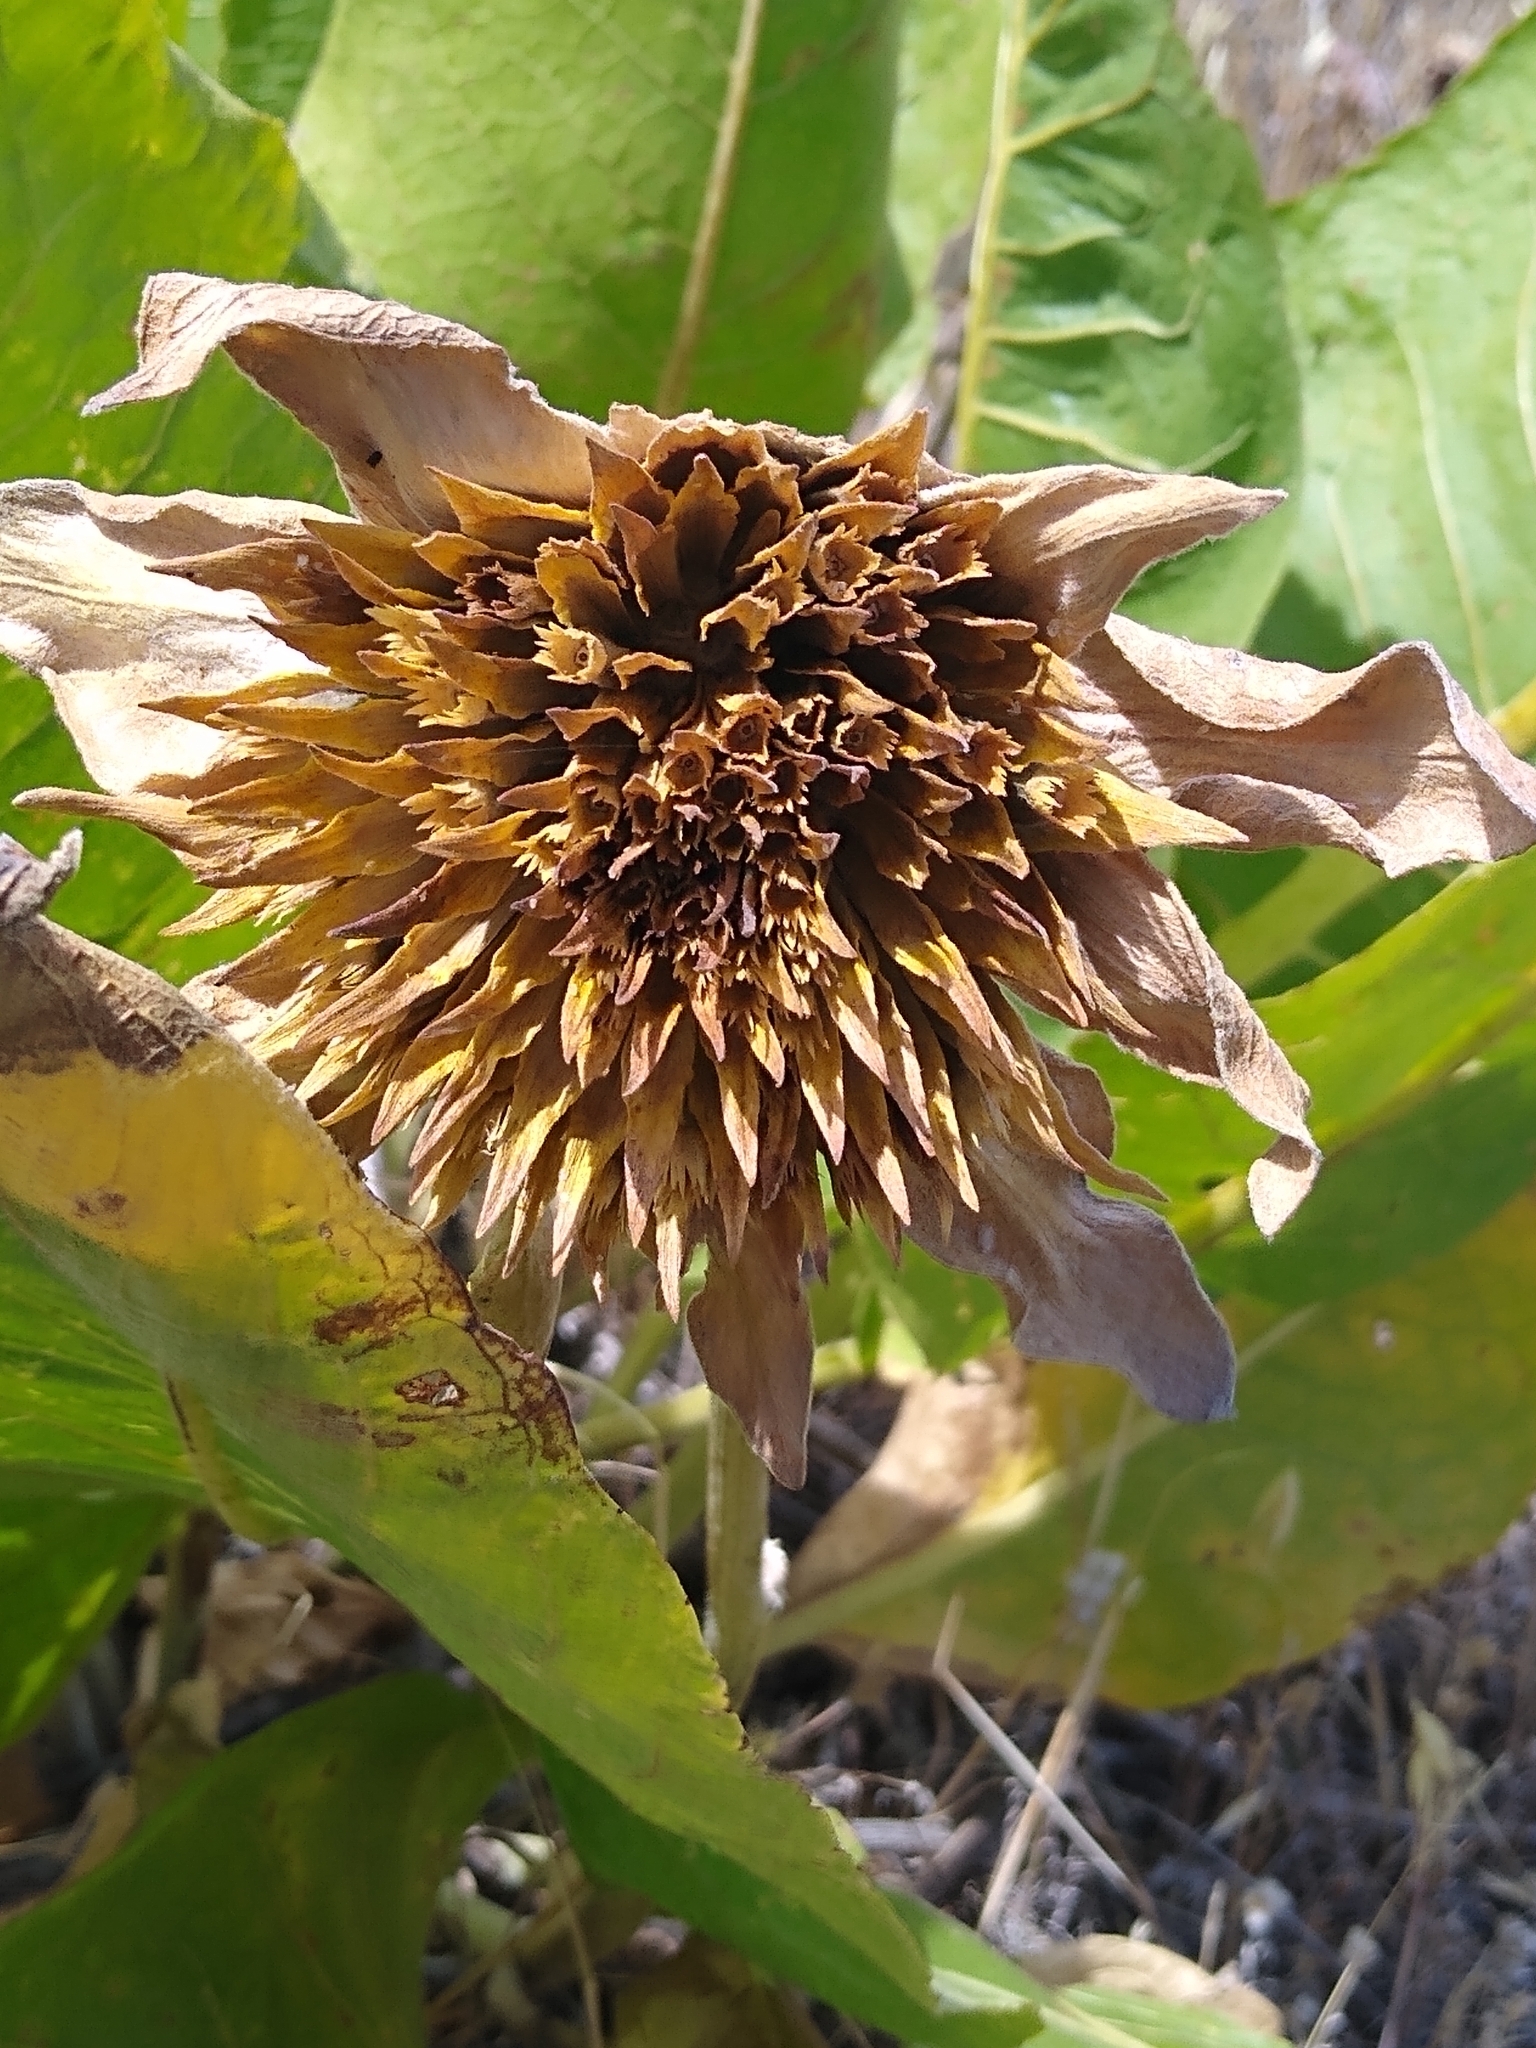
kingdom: Plantae
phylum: Tracheophyta
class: Magnoliopsida
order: Asterales
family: Asteraceae
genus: Wyethia
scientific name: Wyethia glabra
